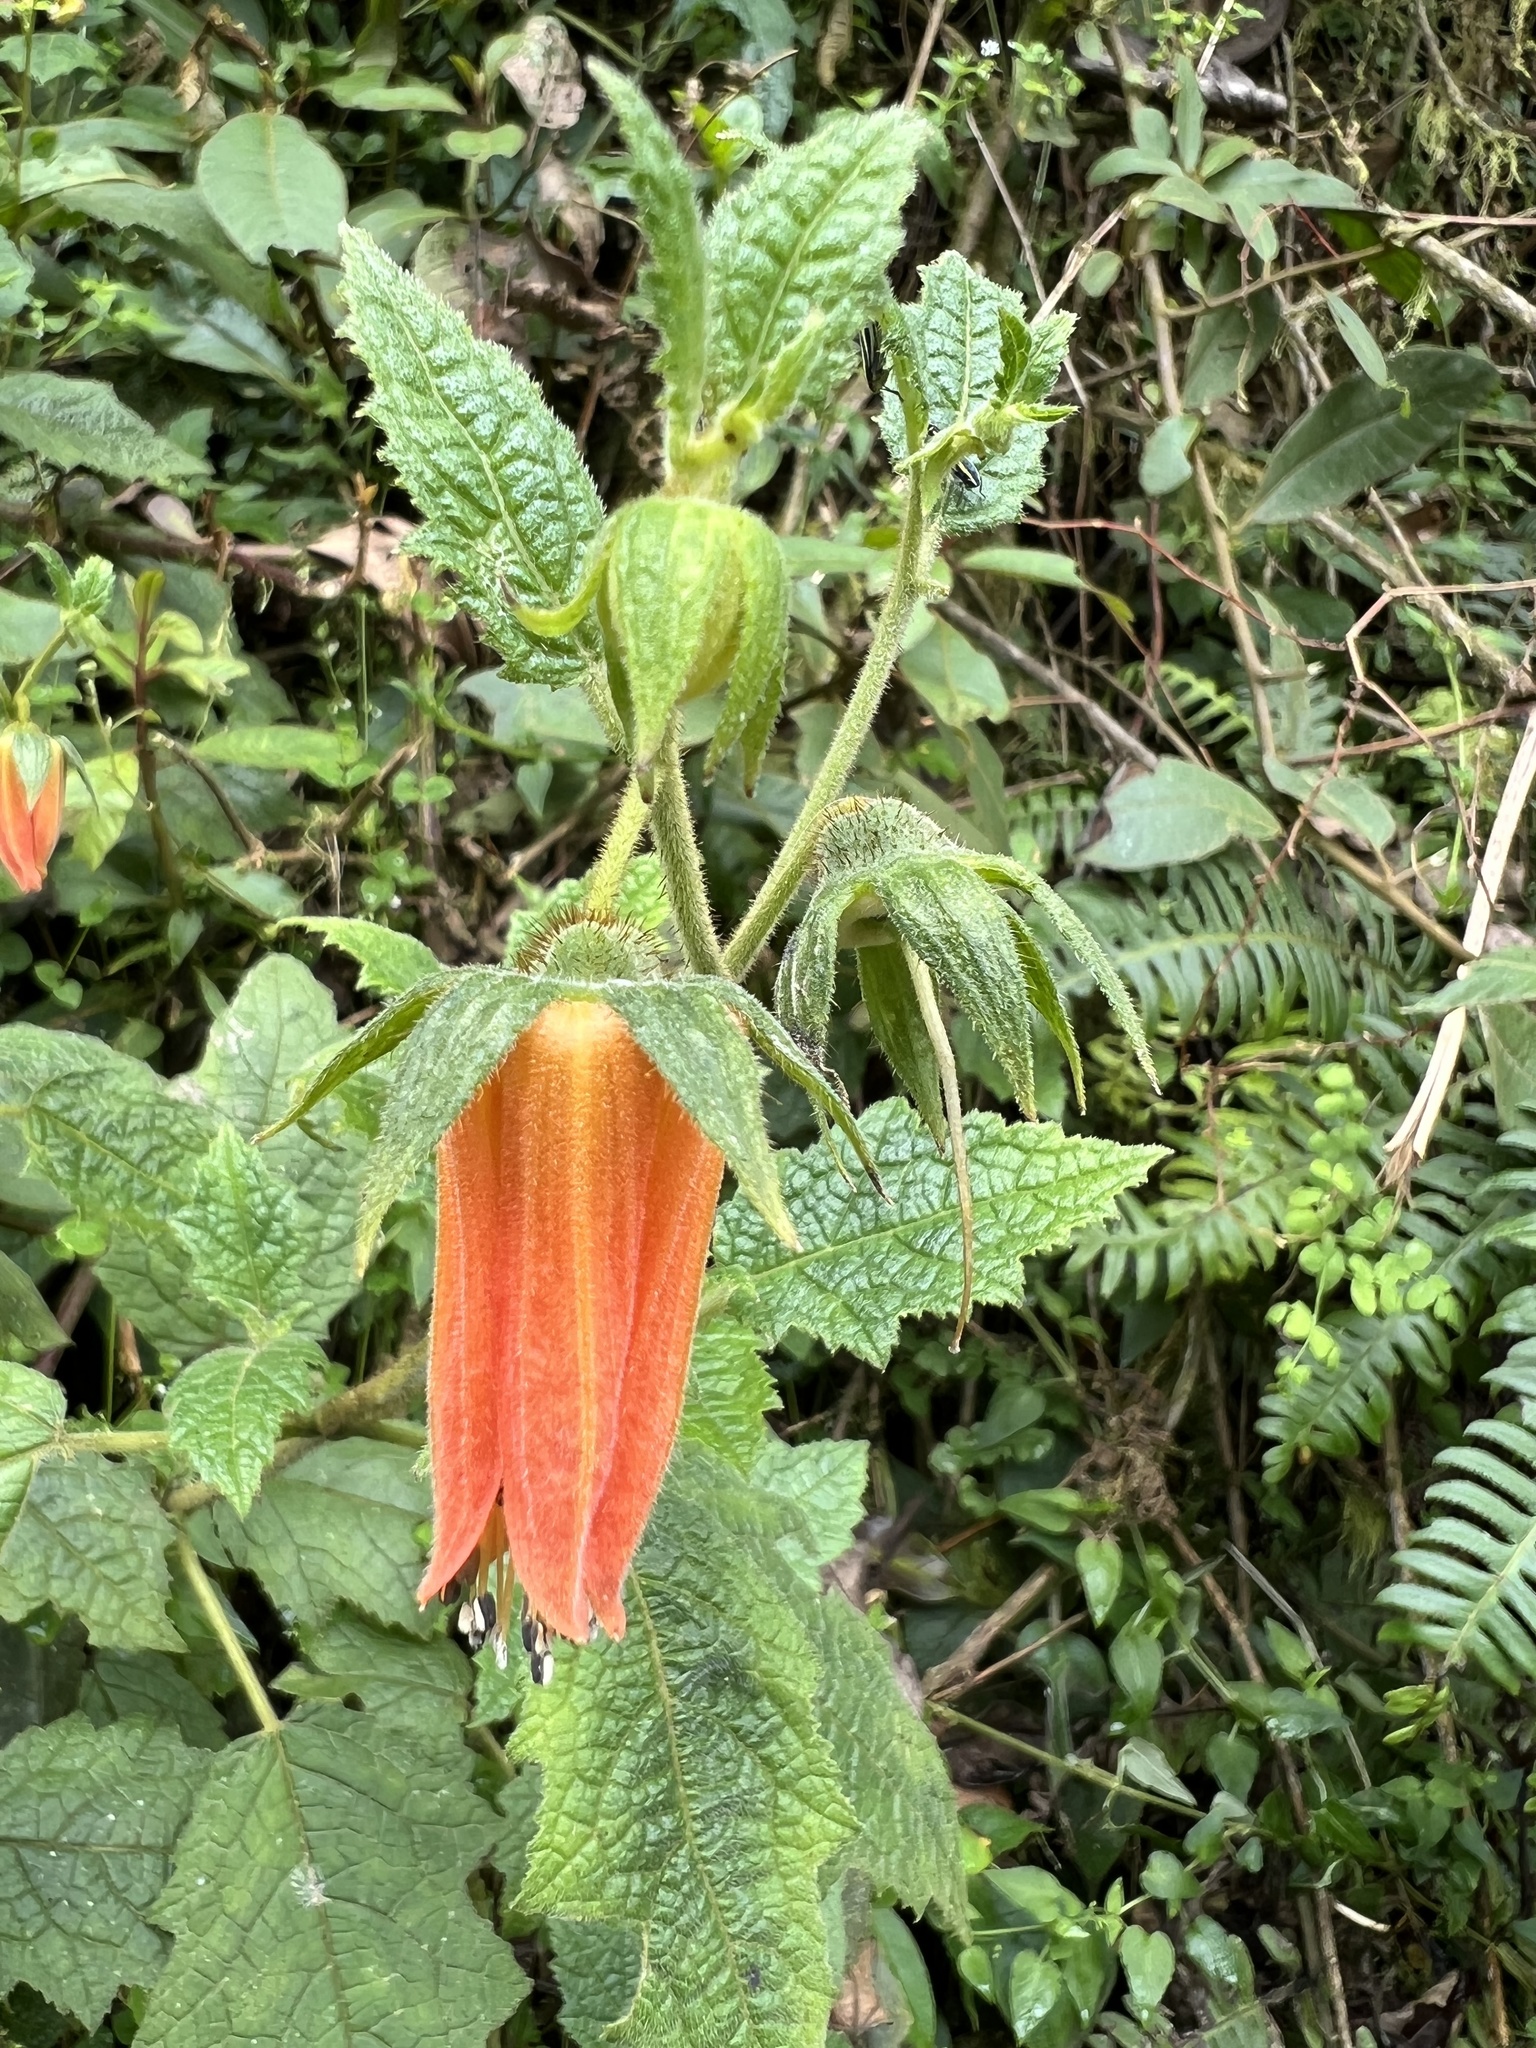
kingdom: Plantae
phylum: Tracheophyta
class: Magnoliopsida
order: Cornales
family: Loasaceae
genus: Nasa
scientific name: Nasa campaniflora
